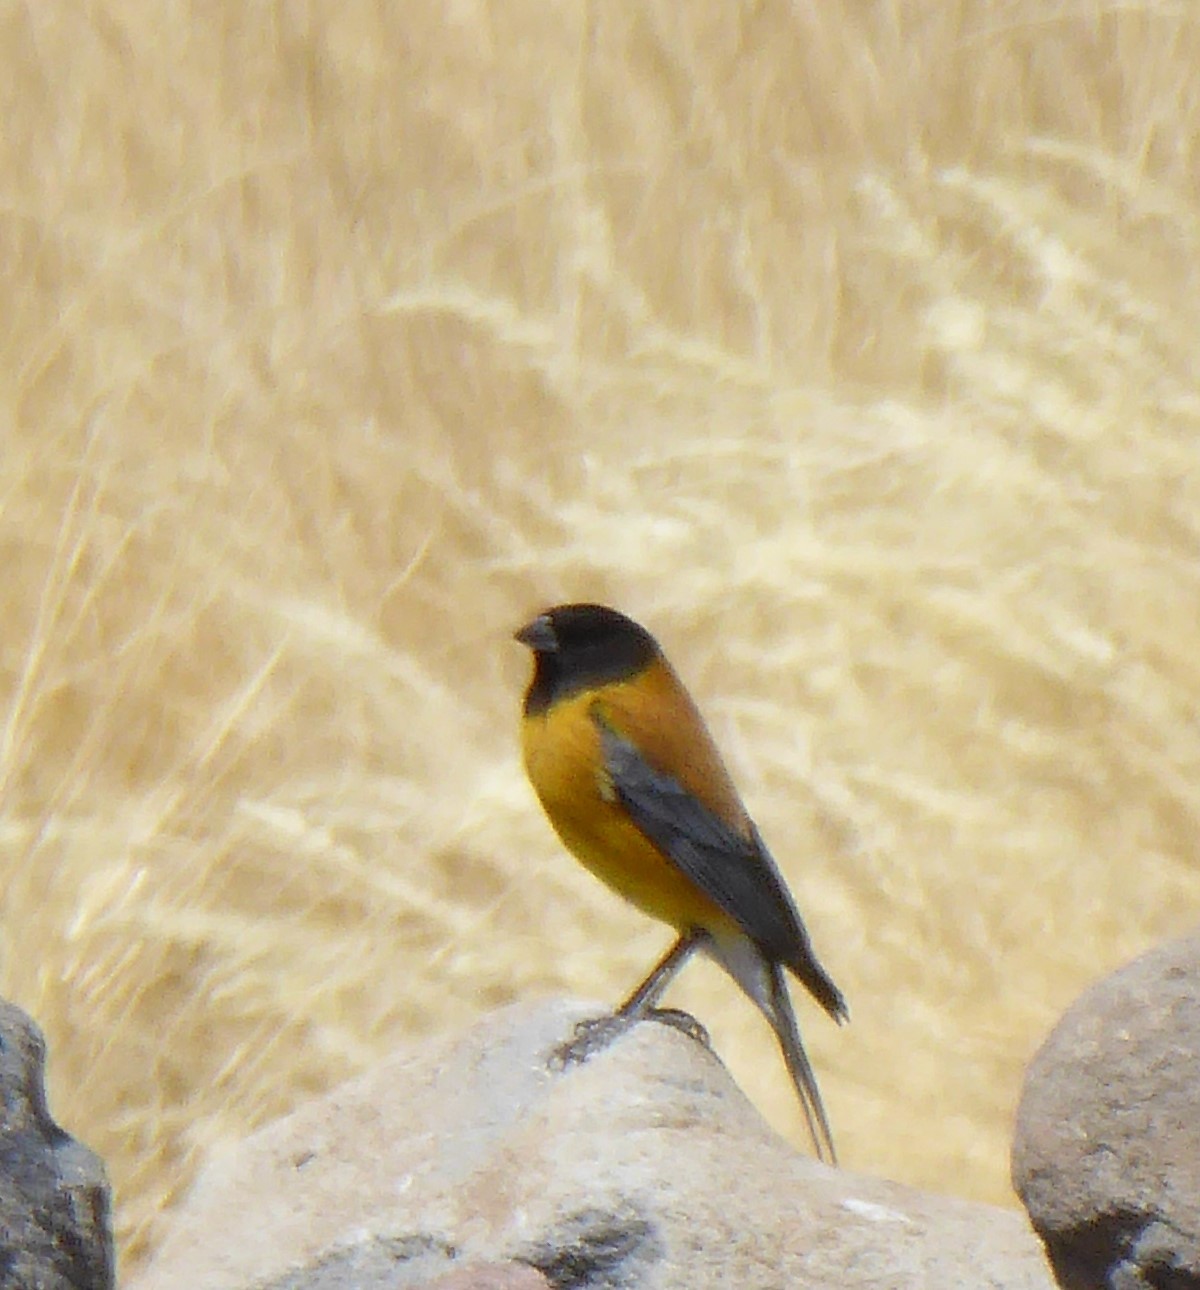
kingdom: Animalia
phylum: Chordata
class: Aves
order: Passeriformes
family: Thraupidae
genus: Phrygilus
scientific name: Phrygilus atriceps
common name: Black-hooded sierra finch
